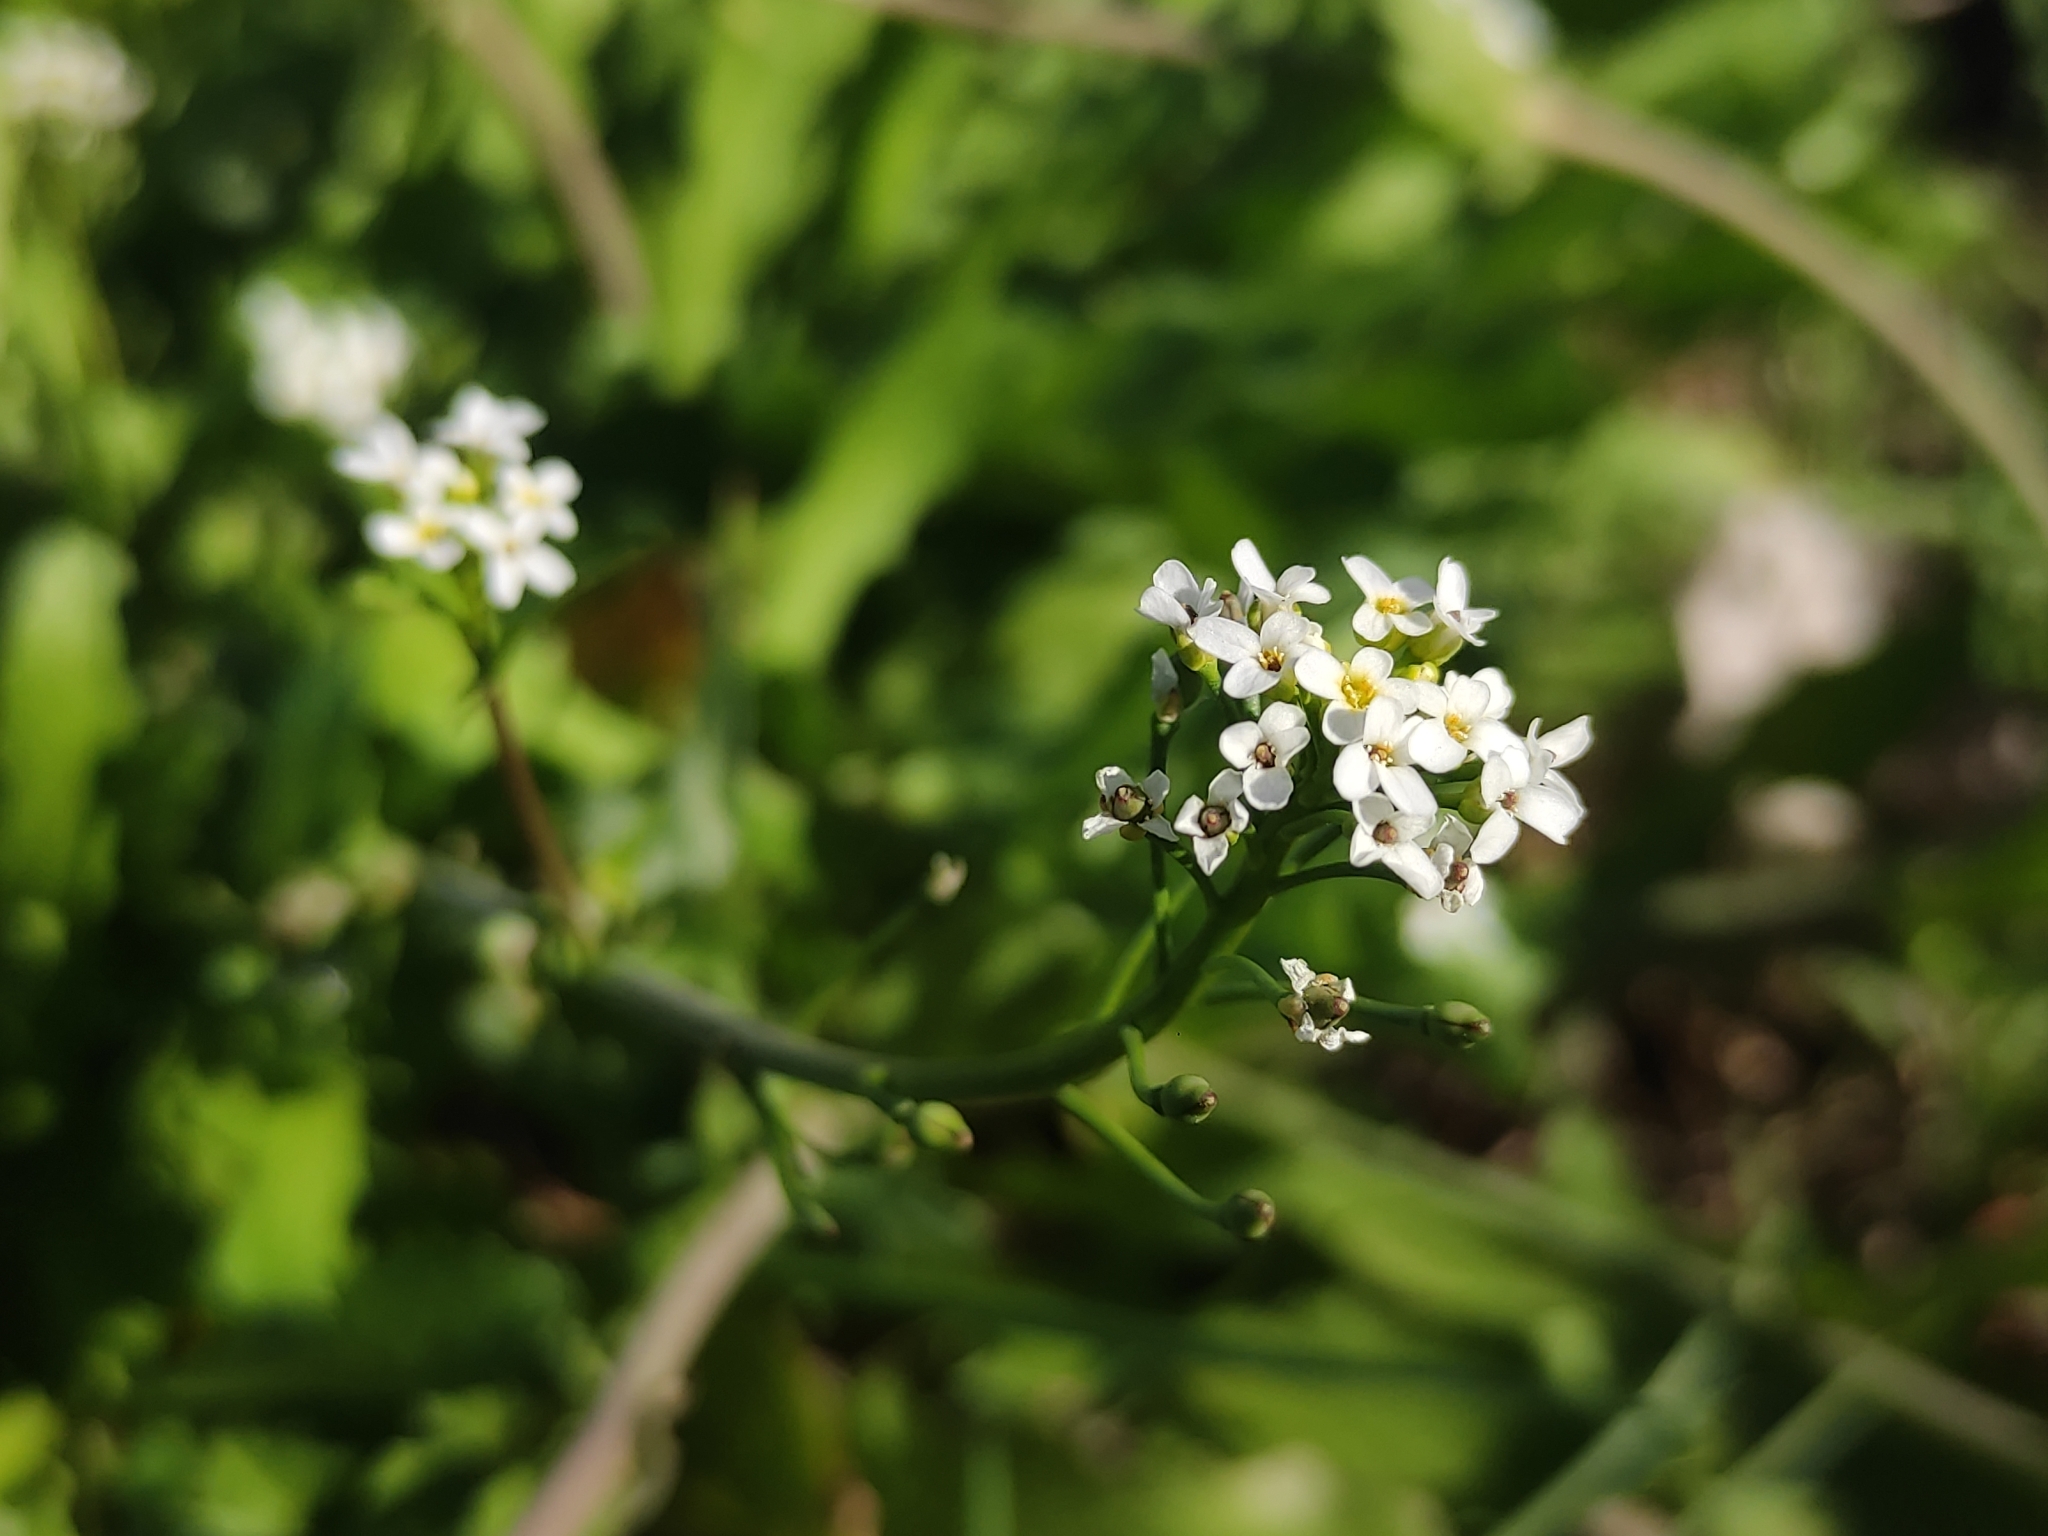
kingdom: Plantae
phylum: Tracheophyta
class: Magnoliopsida
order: Brassicales
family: Brassicaceae
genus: Calepina
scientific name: Calepina irregularis
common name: White ballmustard
